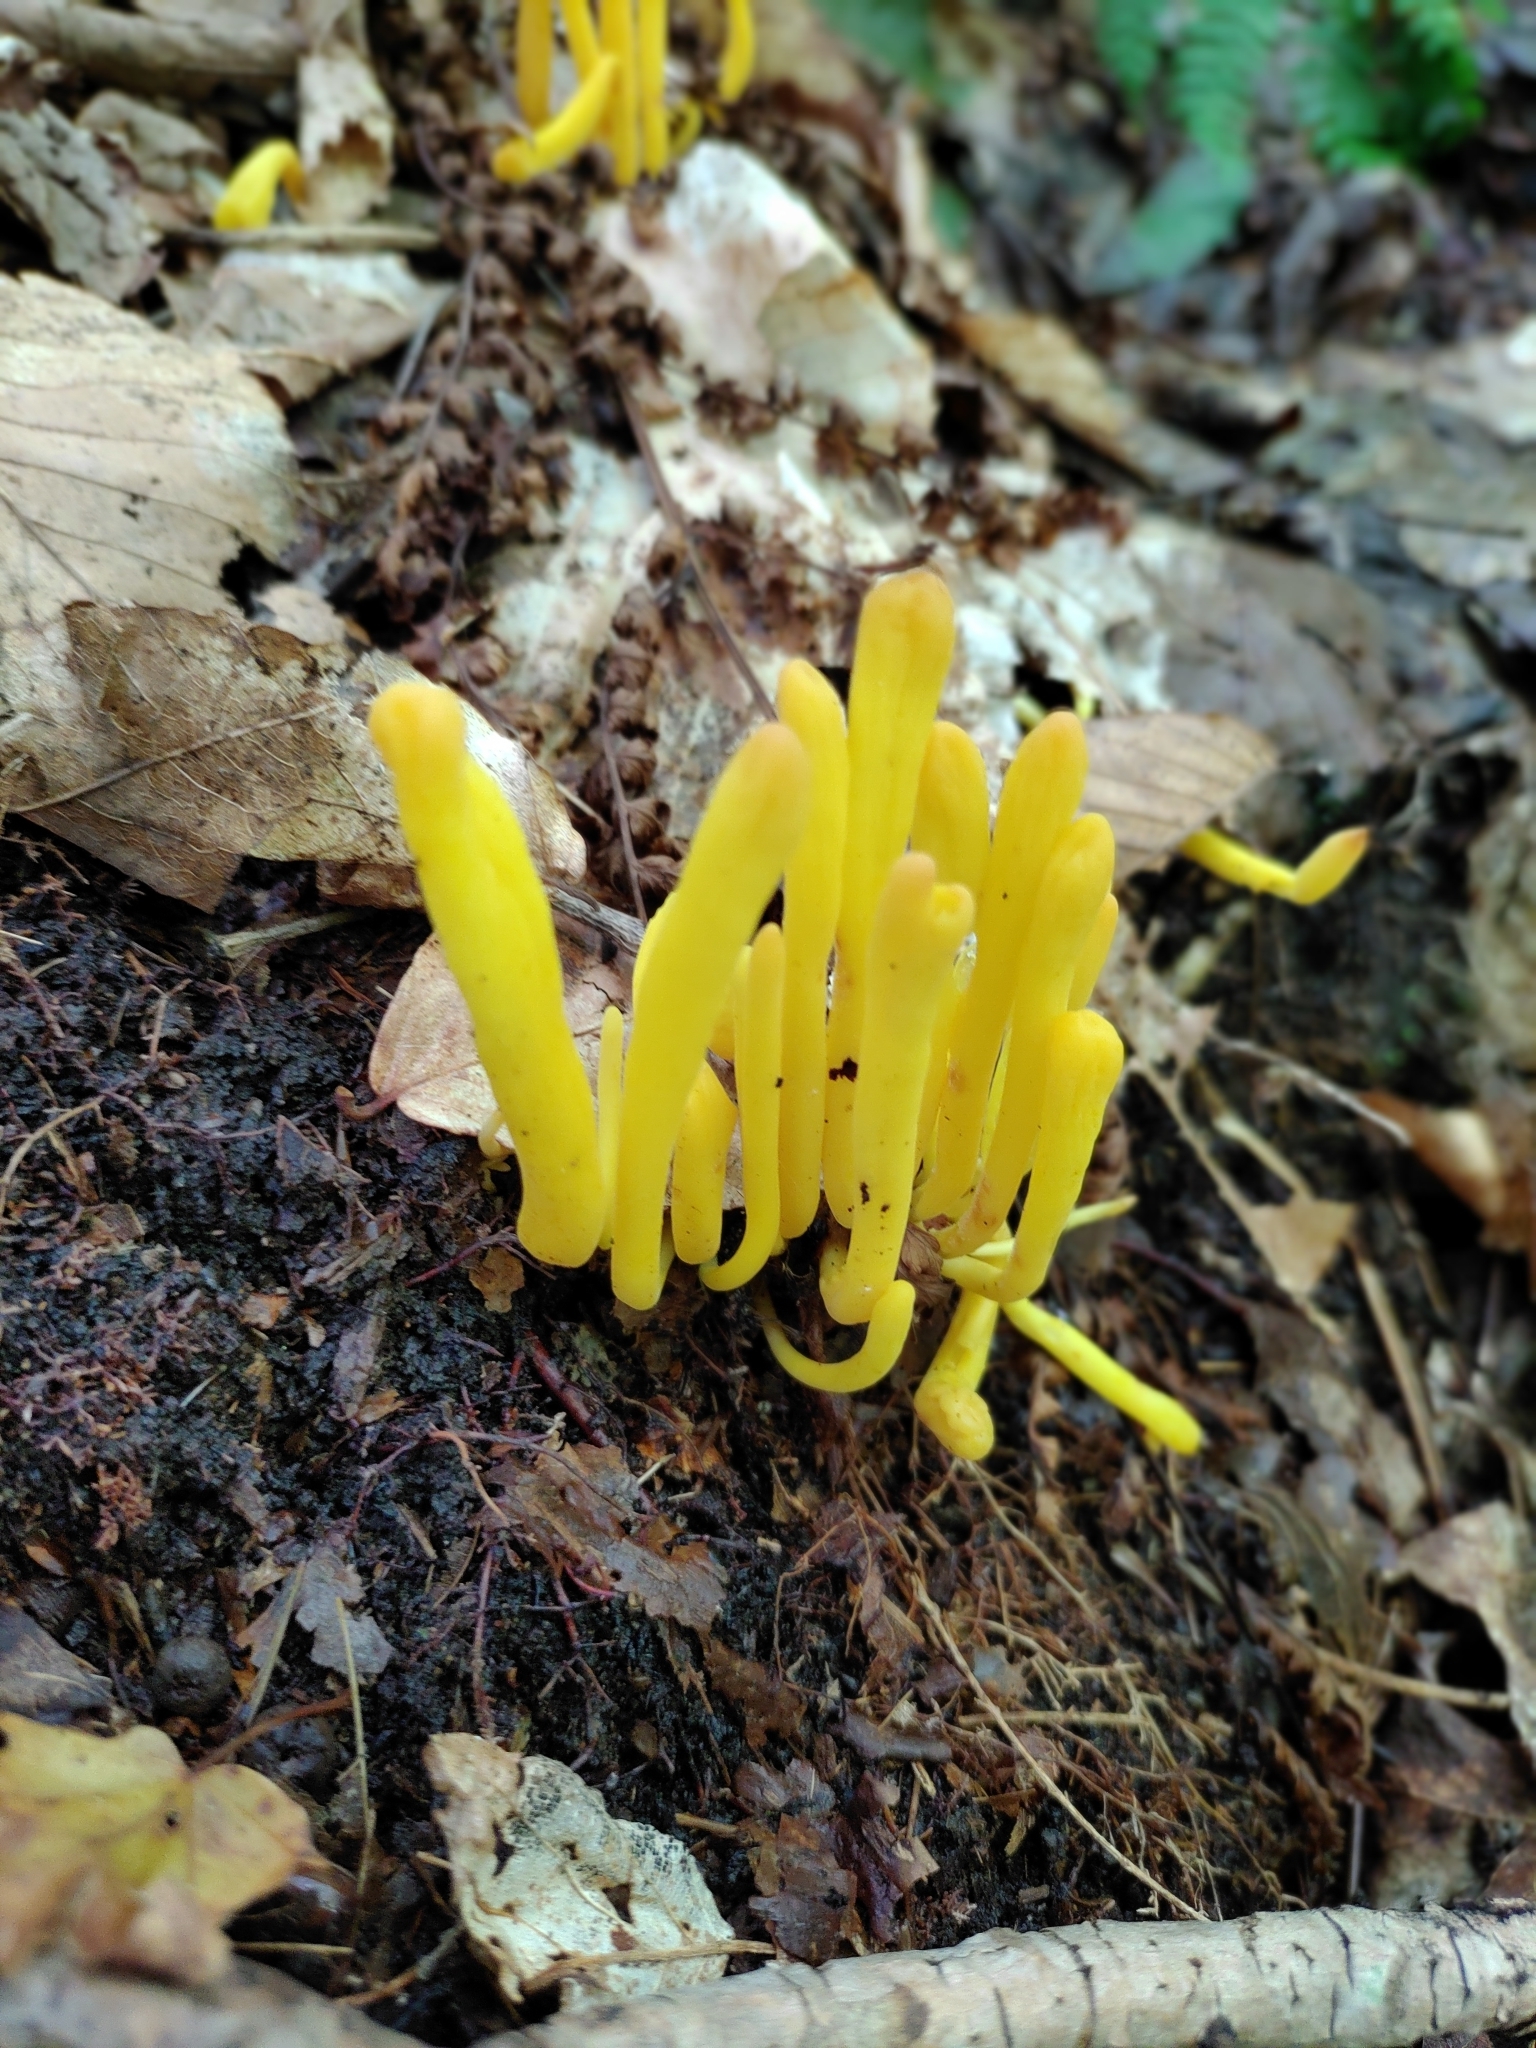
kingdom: Fungi
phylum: Basidiomycota
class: Agaricomycetes
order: Agaricales
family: Clavariaceae
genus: Clavulinopsis
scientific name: Clavulinopsis fusiformis
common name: Golden spindles
